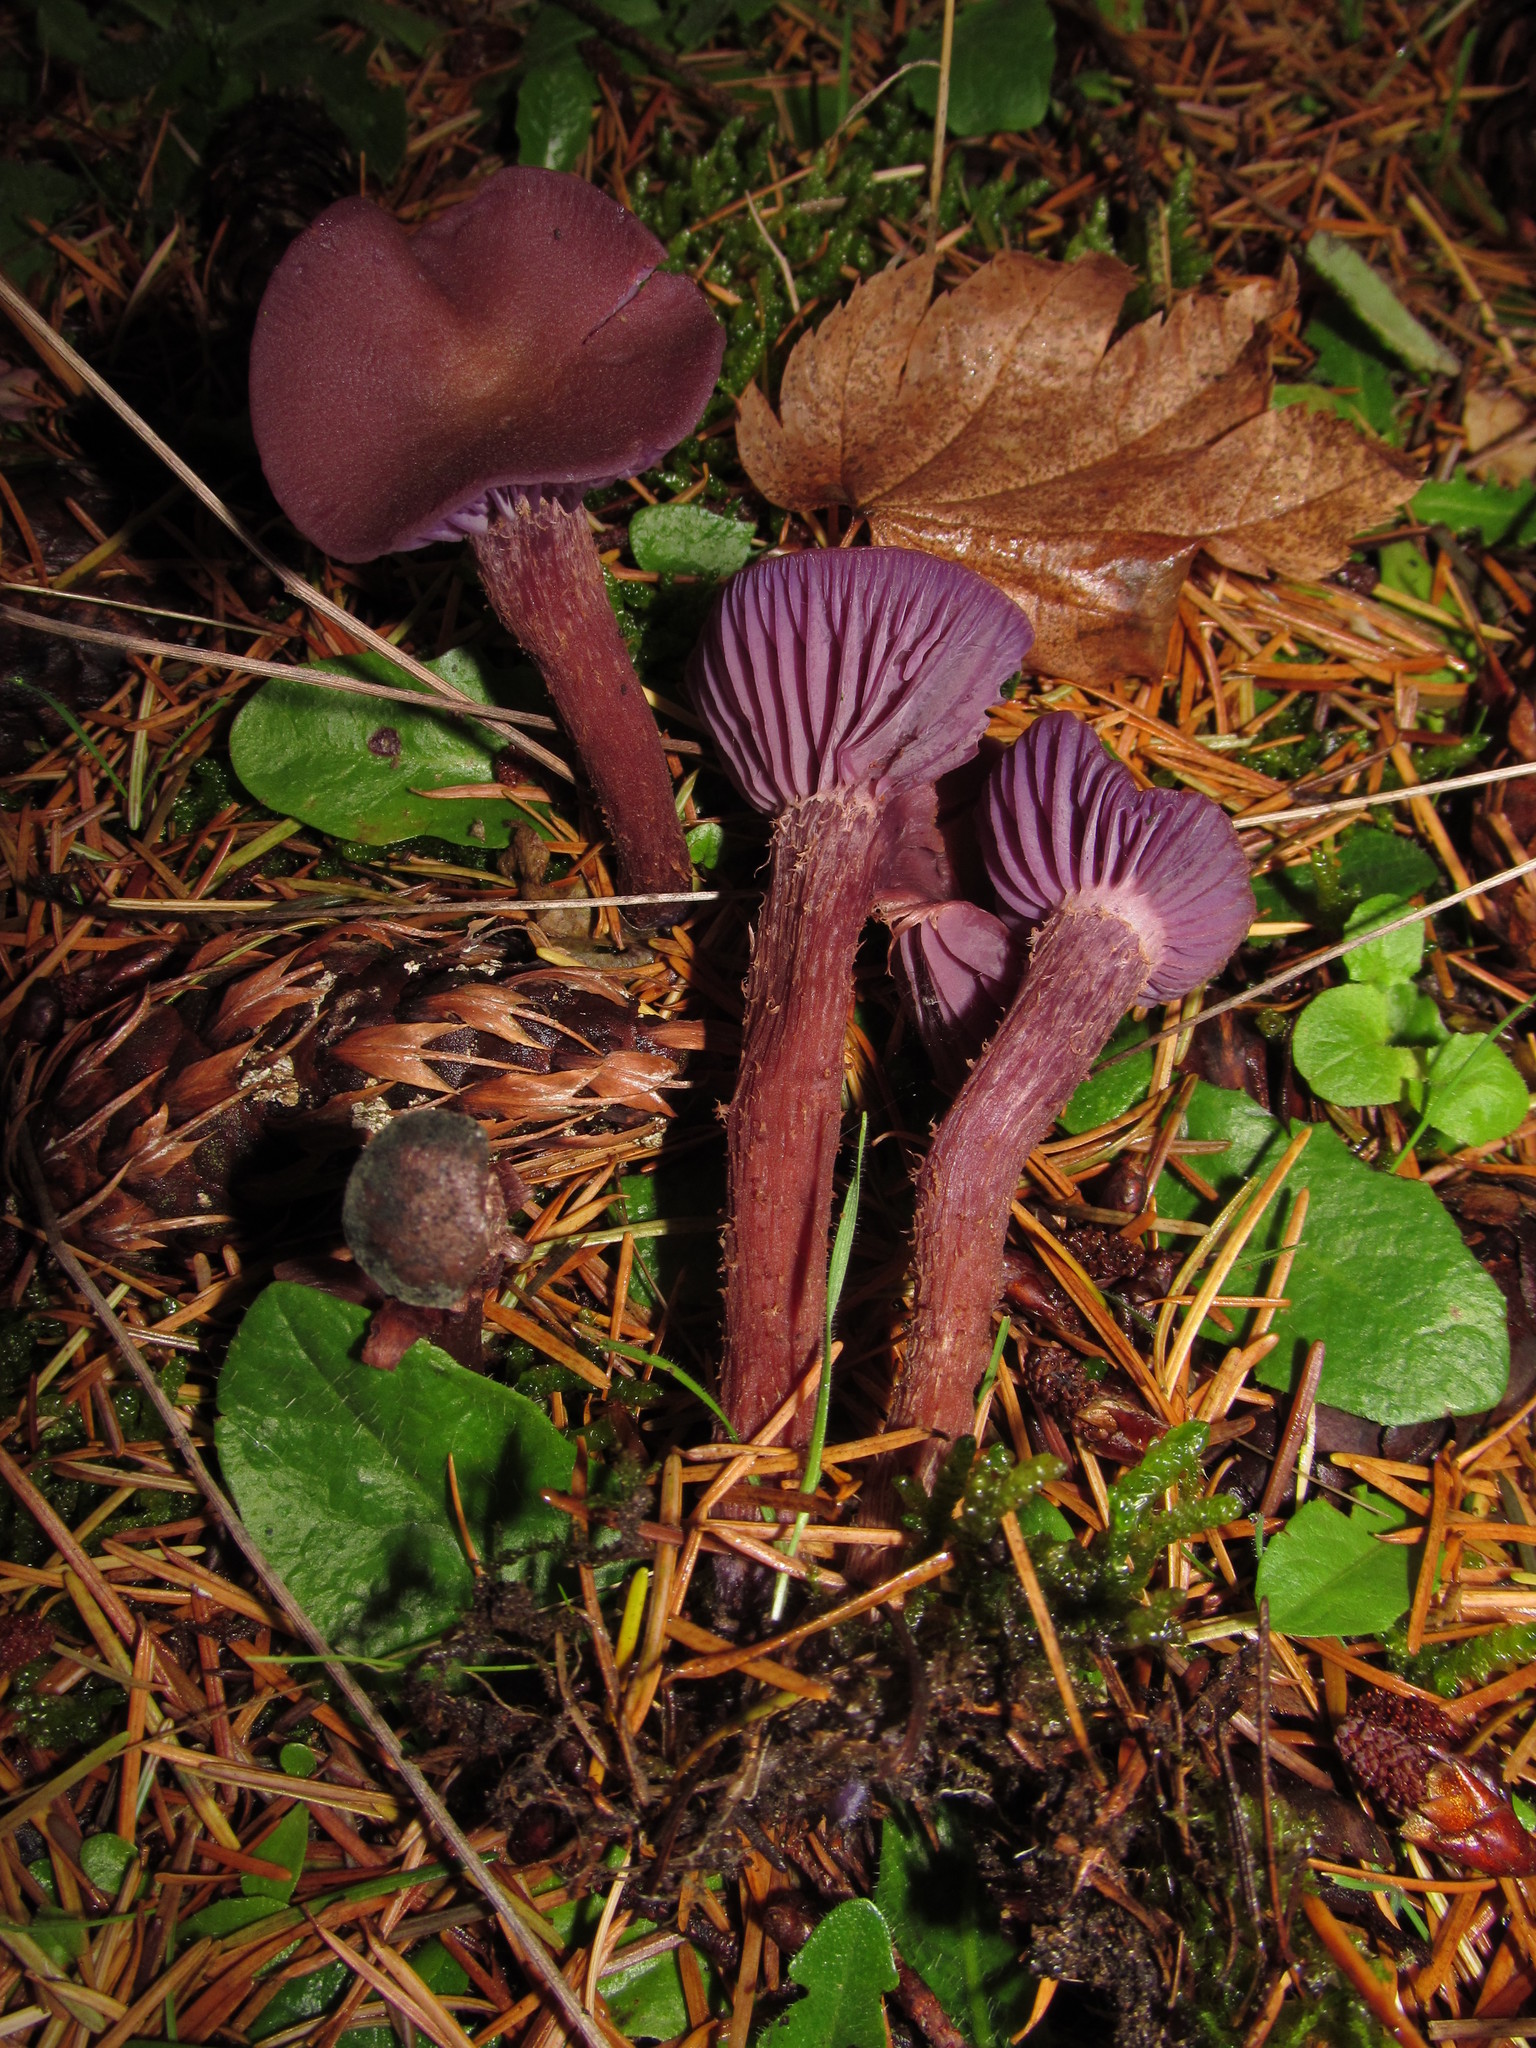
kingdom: Fungi
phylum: Basidiomycota
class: Agaricomycetes
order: Agaricales
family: Hydnangiaceae
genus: Laccaria
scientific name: Laccaria amethysteo-occidentalis
